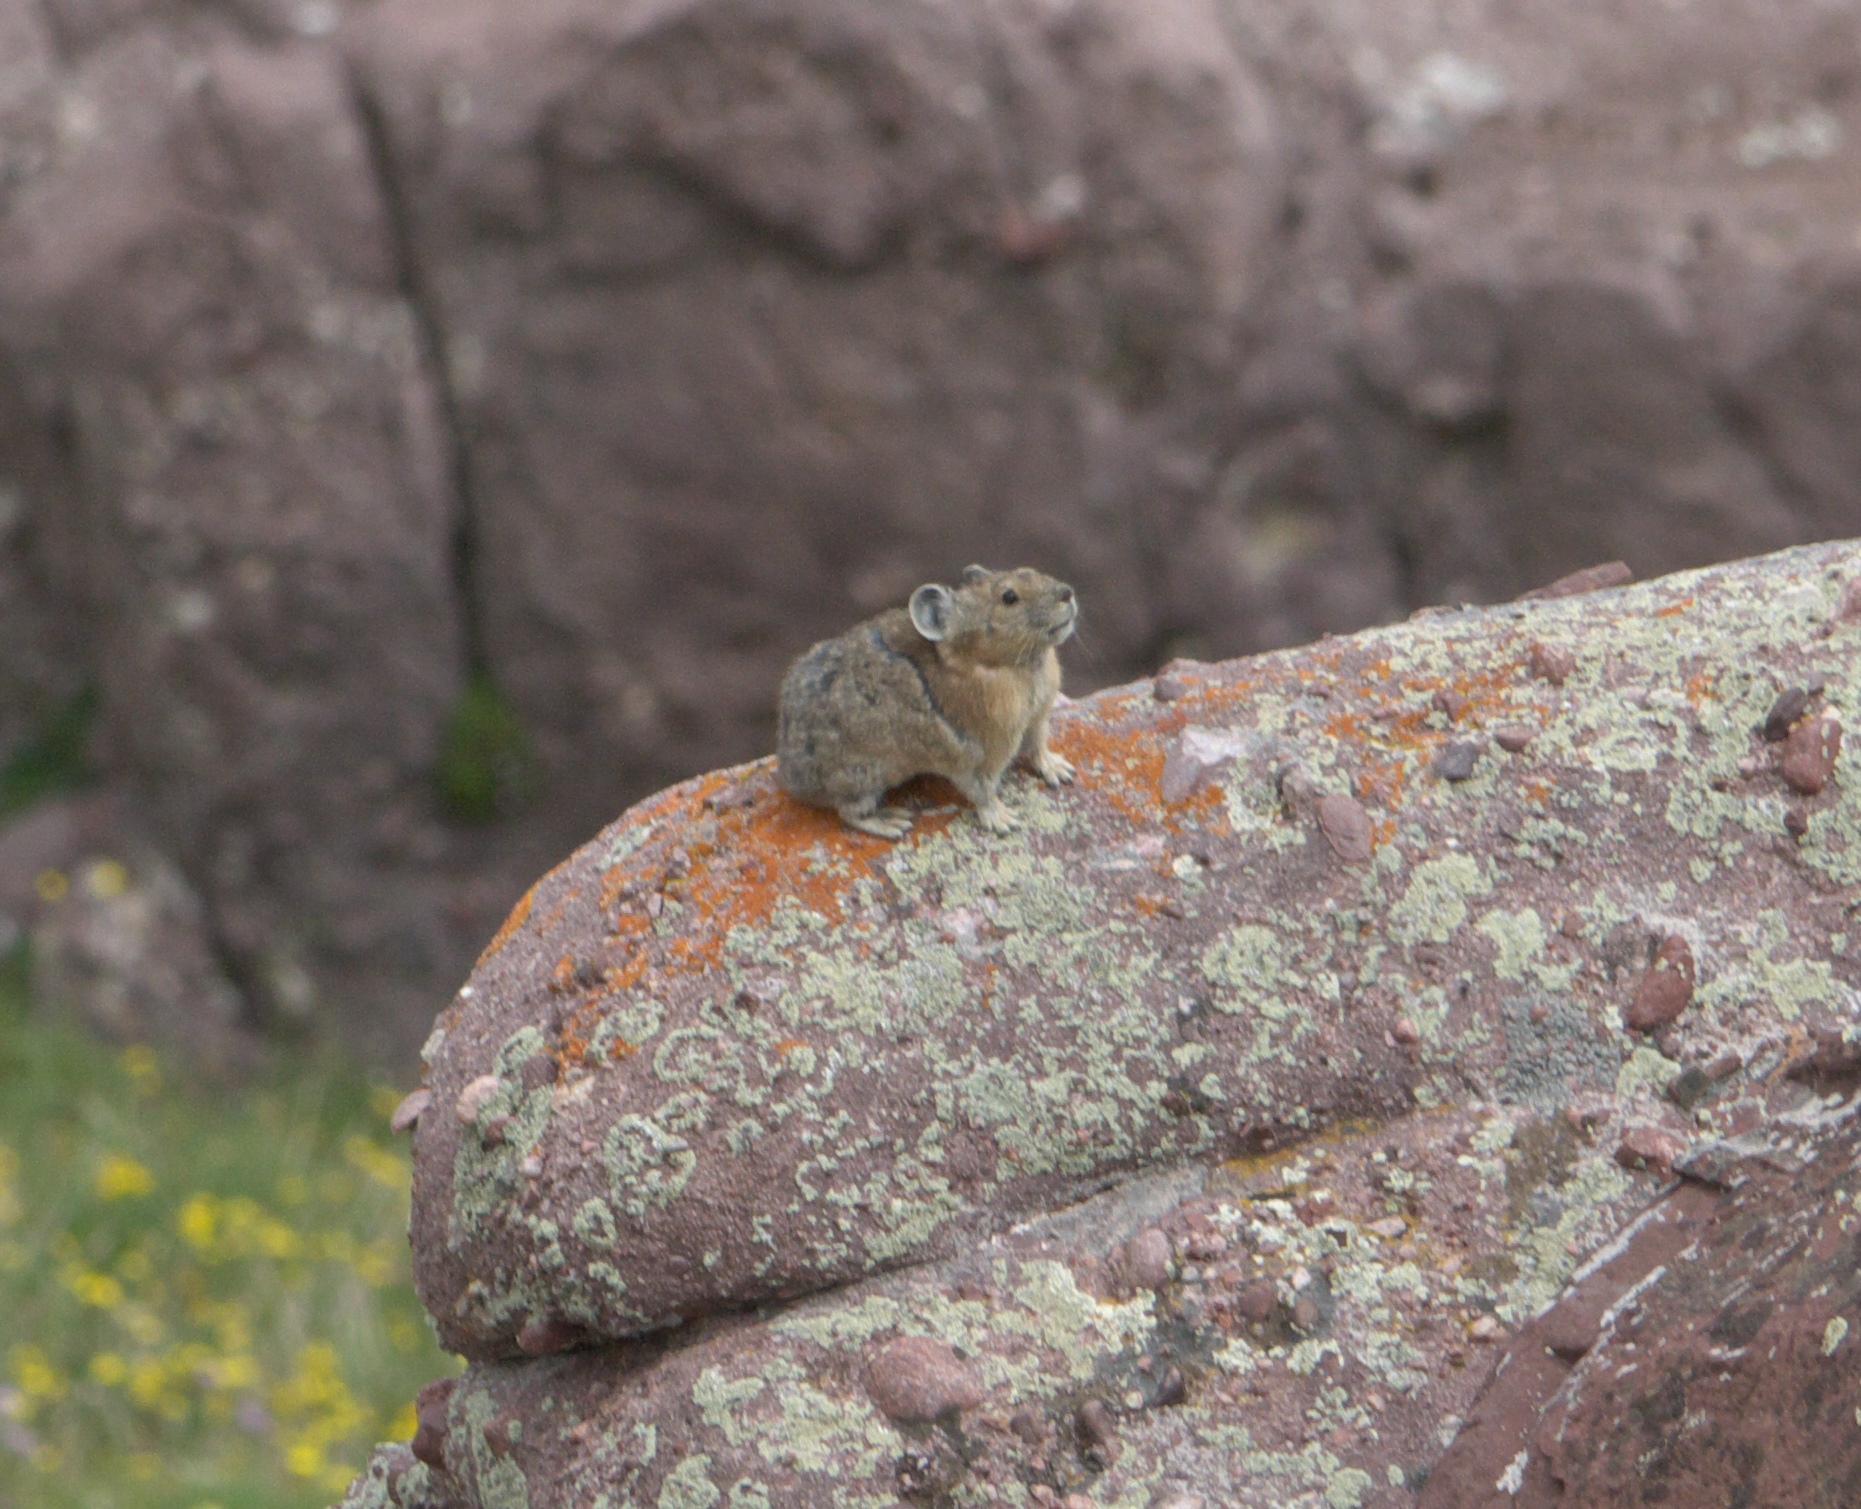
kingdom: Animalia
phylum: Chordata
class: Mammalia
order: Lagomorpha
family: Ochotonidae
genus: Ochotona
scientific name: Ochotona princeps
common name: American pika
